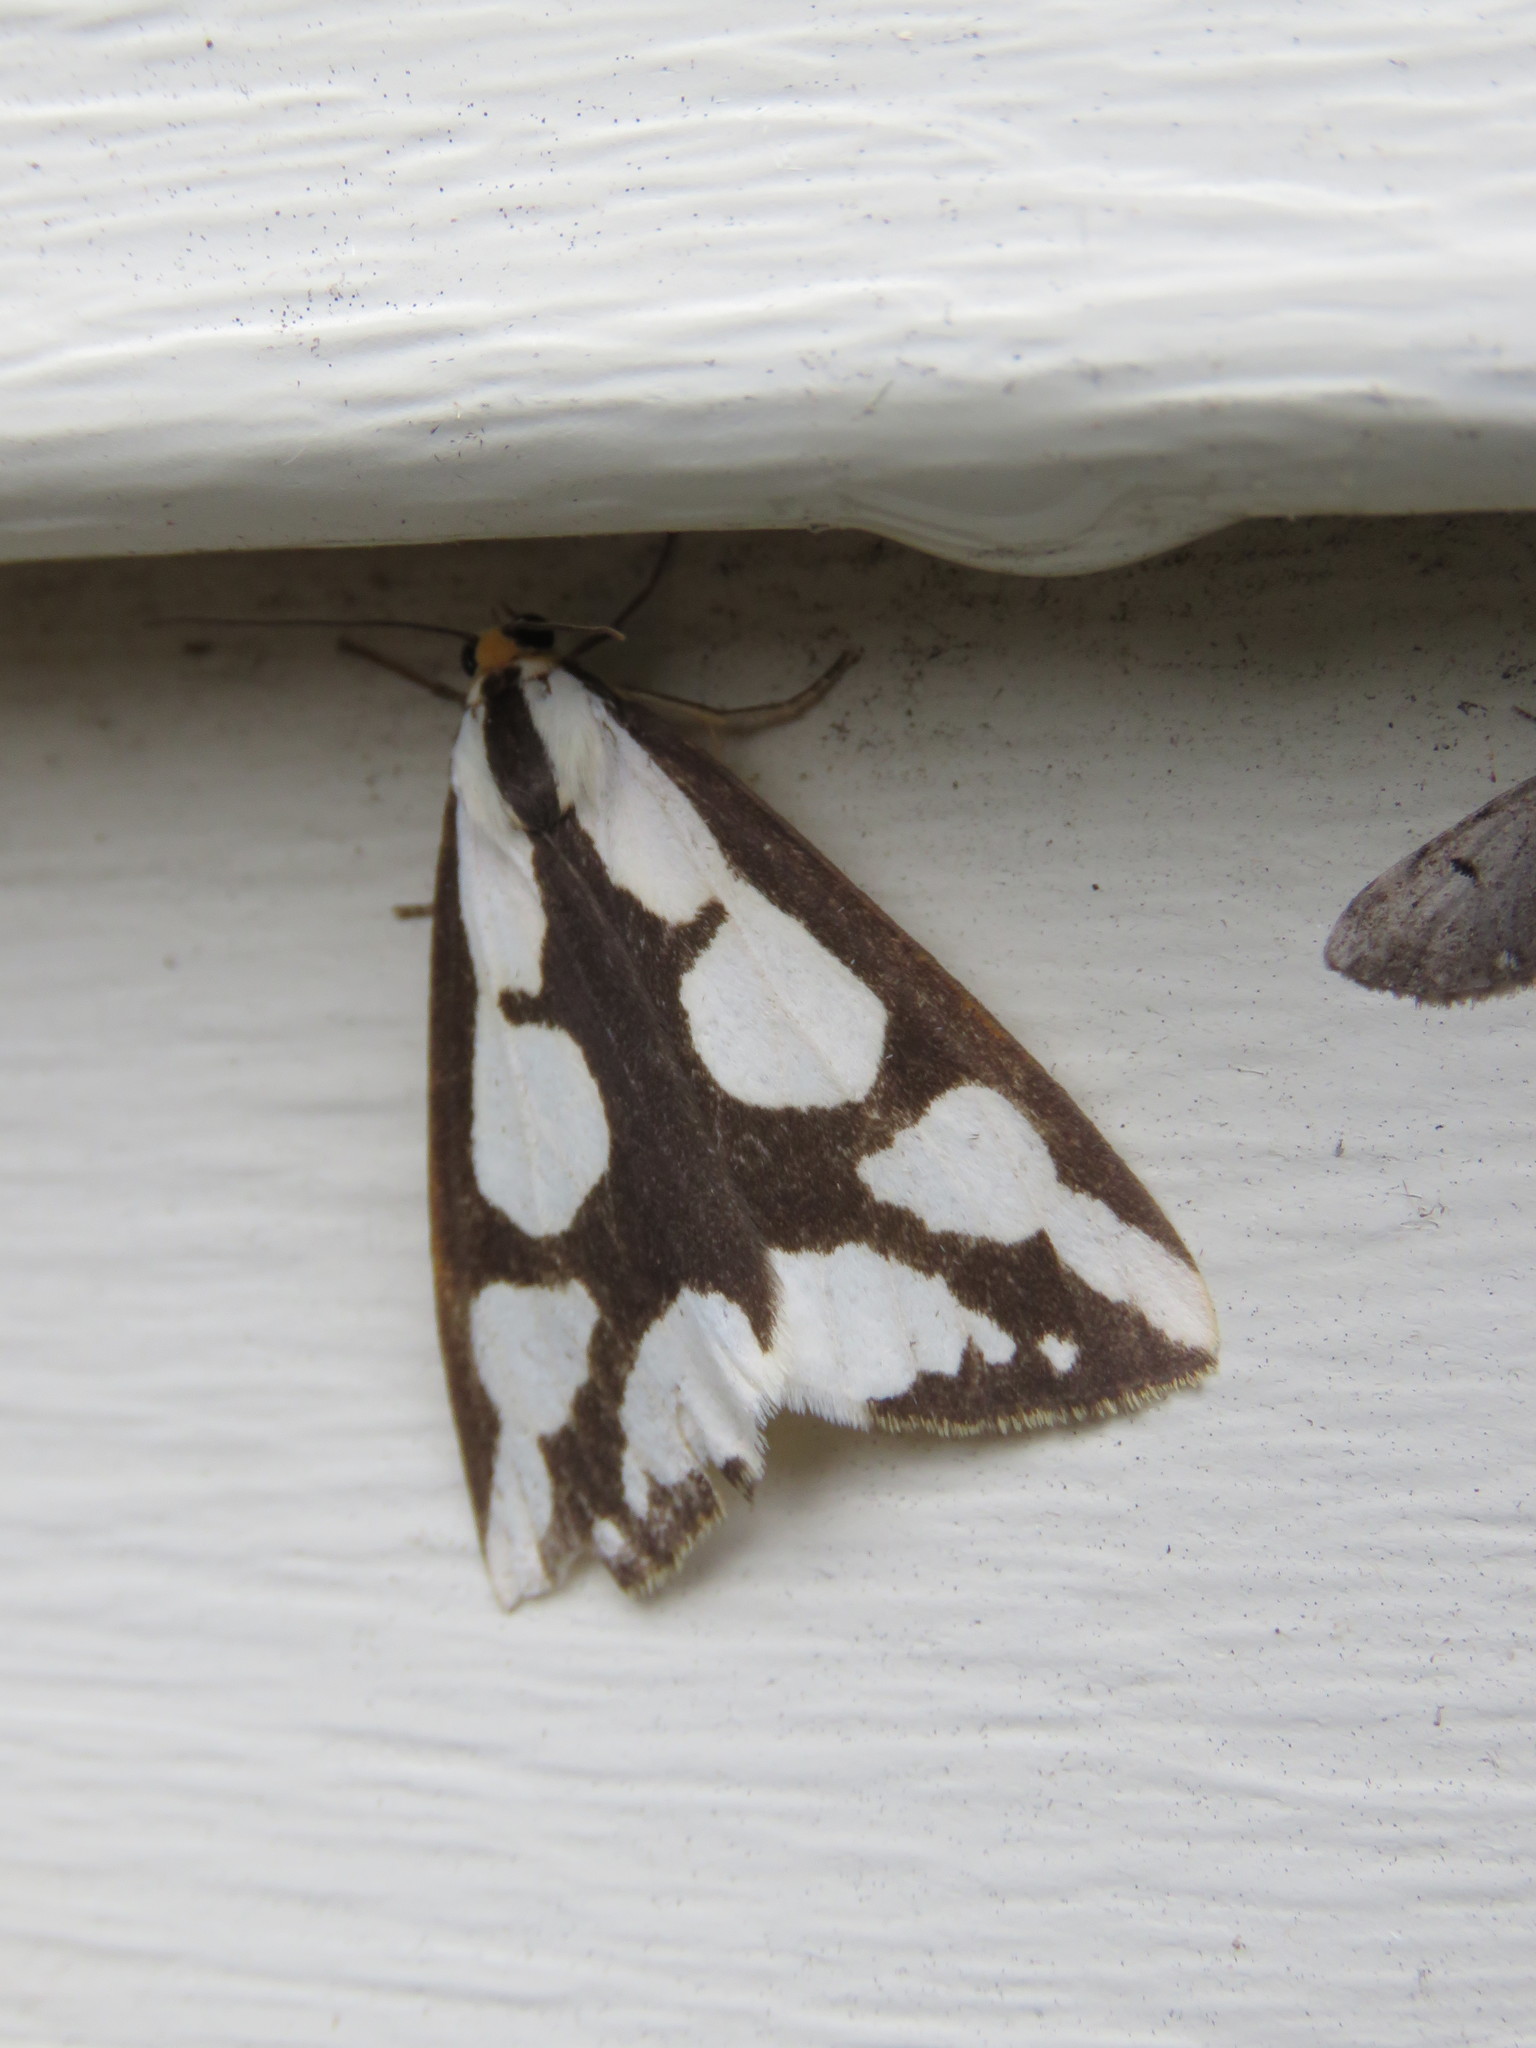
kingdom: Animalia
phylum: Arthropoda
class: Insecta
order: Lepidoptera
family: Erebidae
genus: Haploa
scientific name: Haploa lecontei
